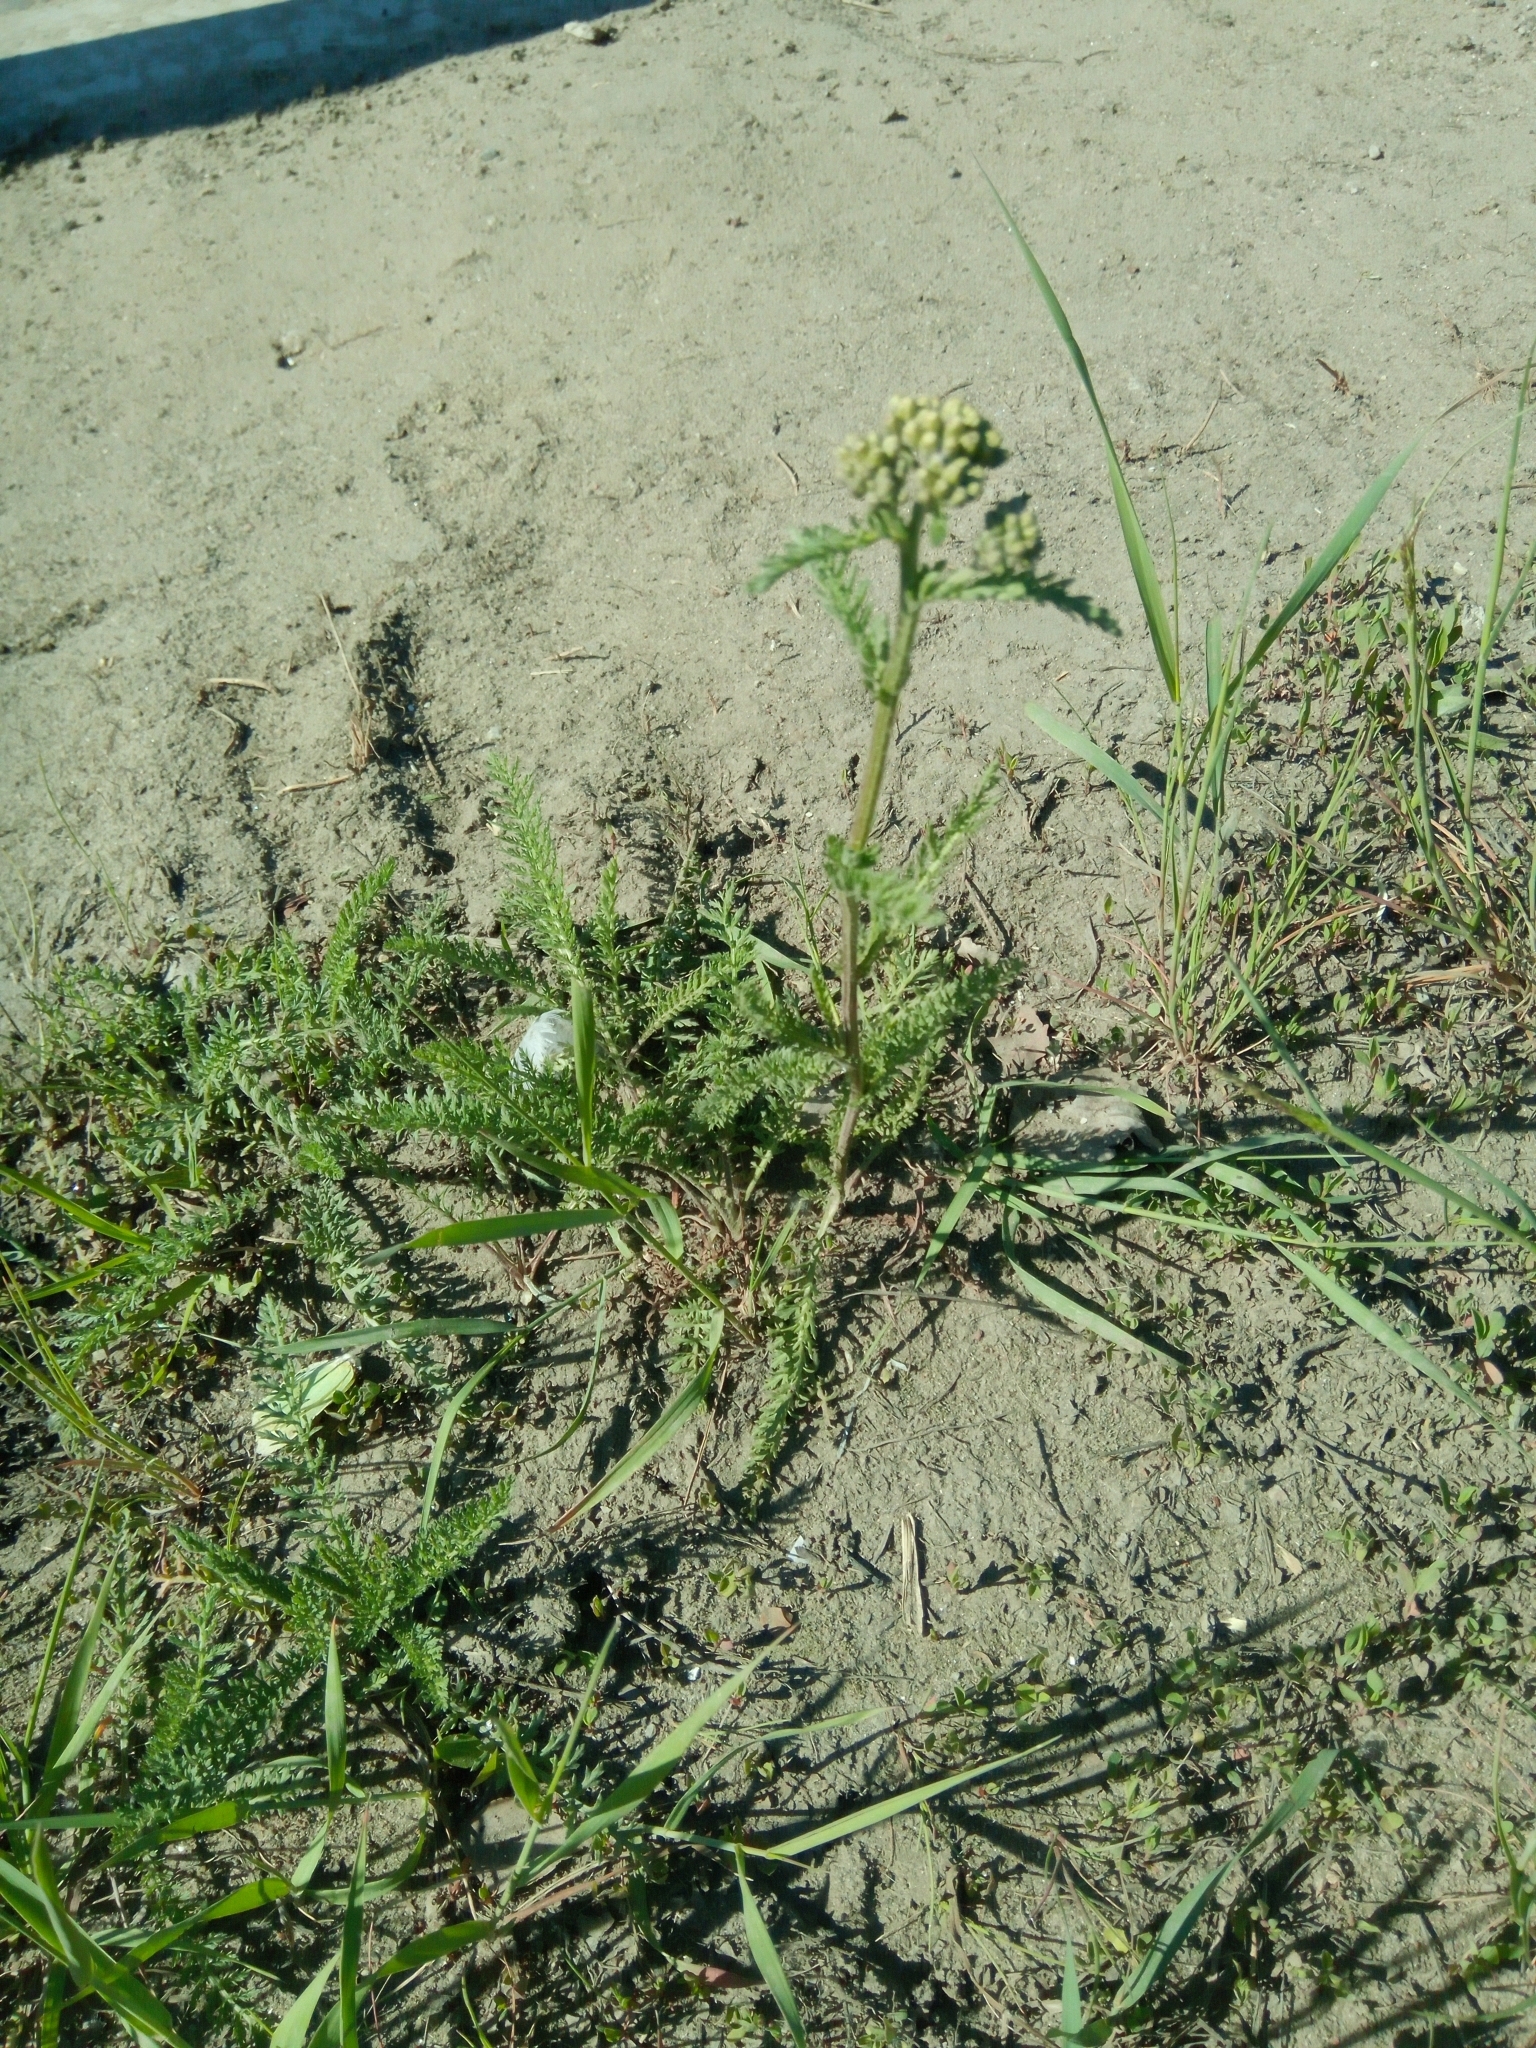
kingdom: Plantae
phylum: Tracheophyta
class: Magnoliopsida
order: Asterales
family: Asteraceae
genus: Achillea
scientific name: Achillea millefolium
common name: Yarrow
